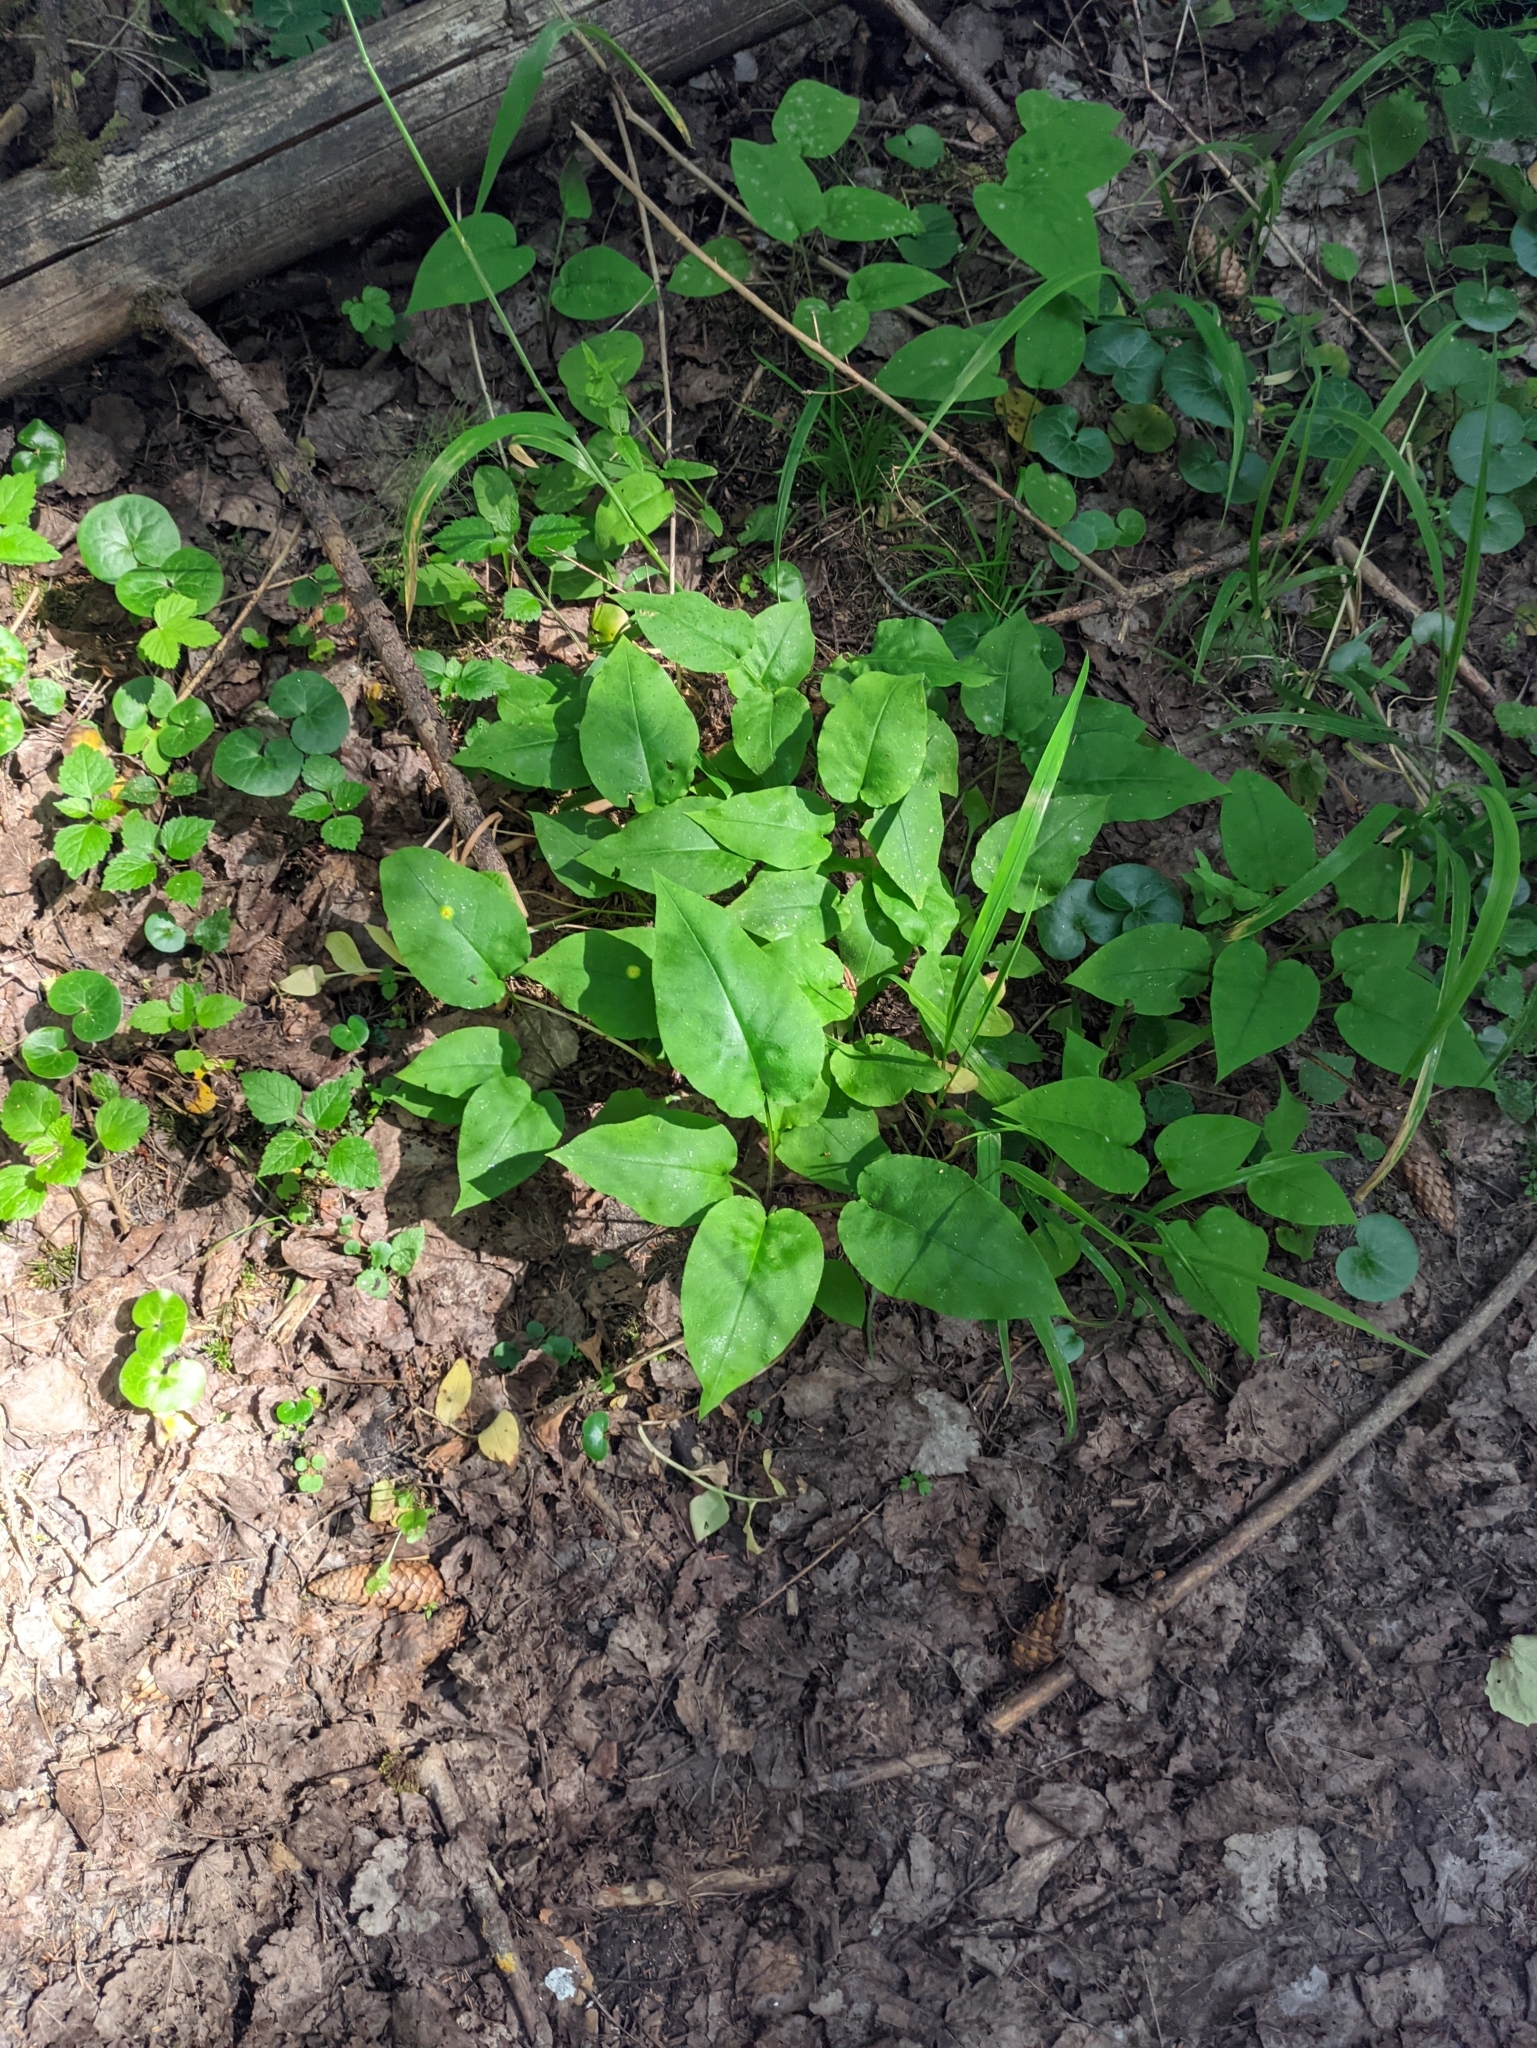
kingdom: Plantae
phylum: Tracheophyta
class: Magnoliopsida
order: Boraginales
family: Boraginaceae
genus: Pulmonaria
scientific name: Pulmonaria obscura
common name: Suffolk lungwort
